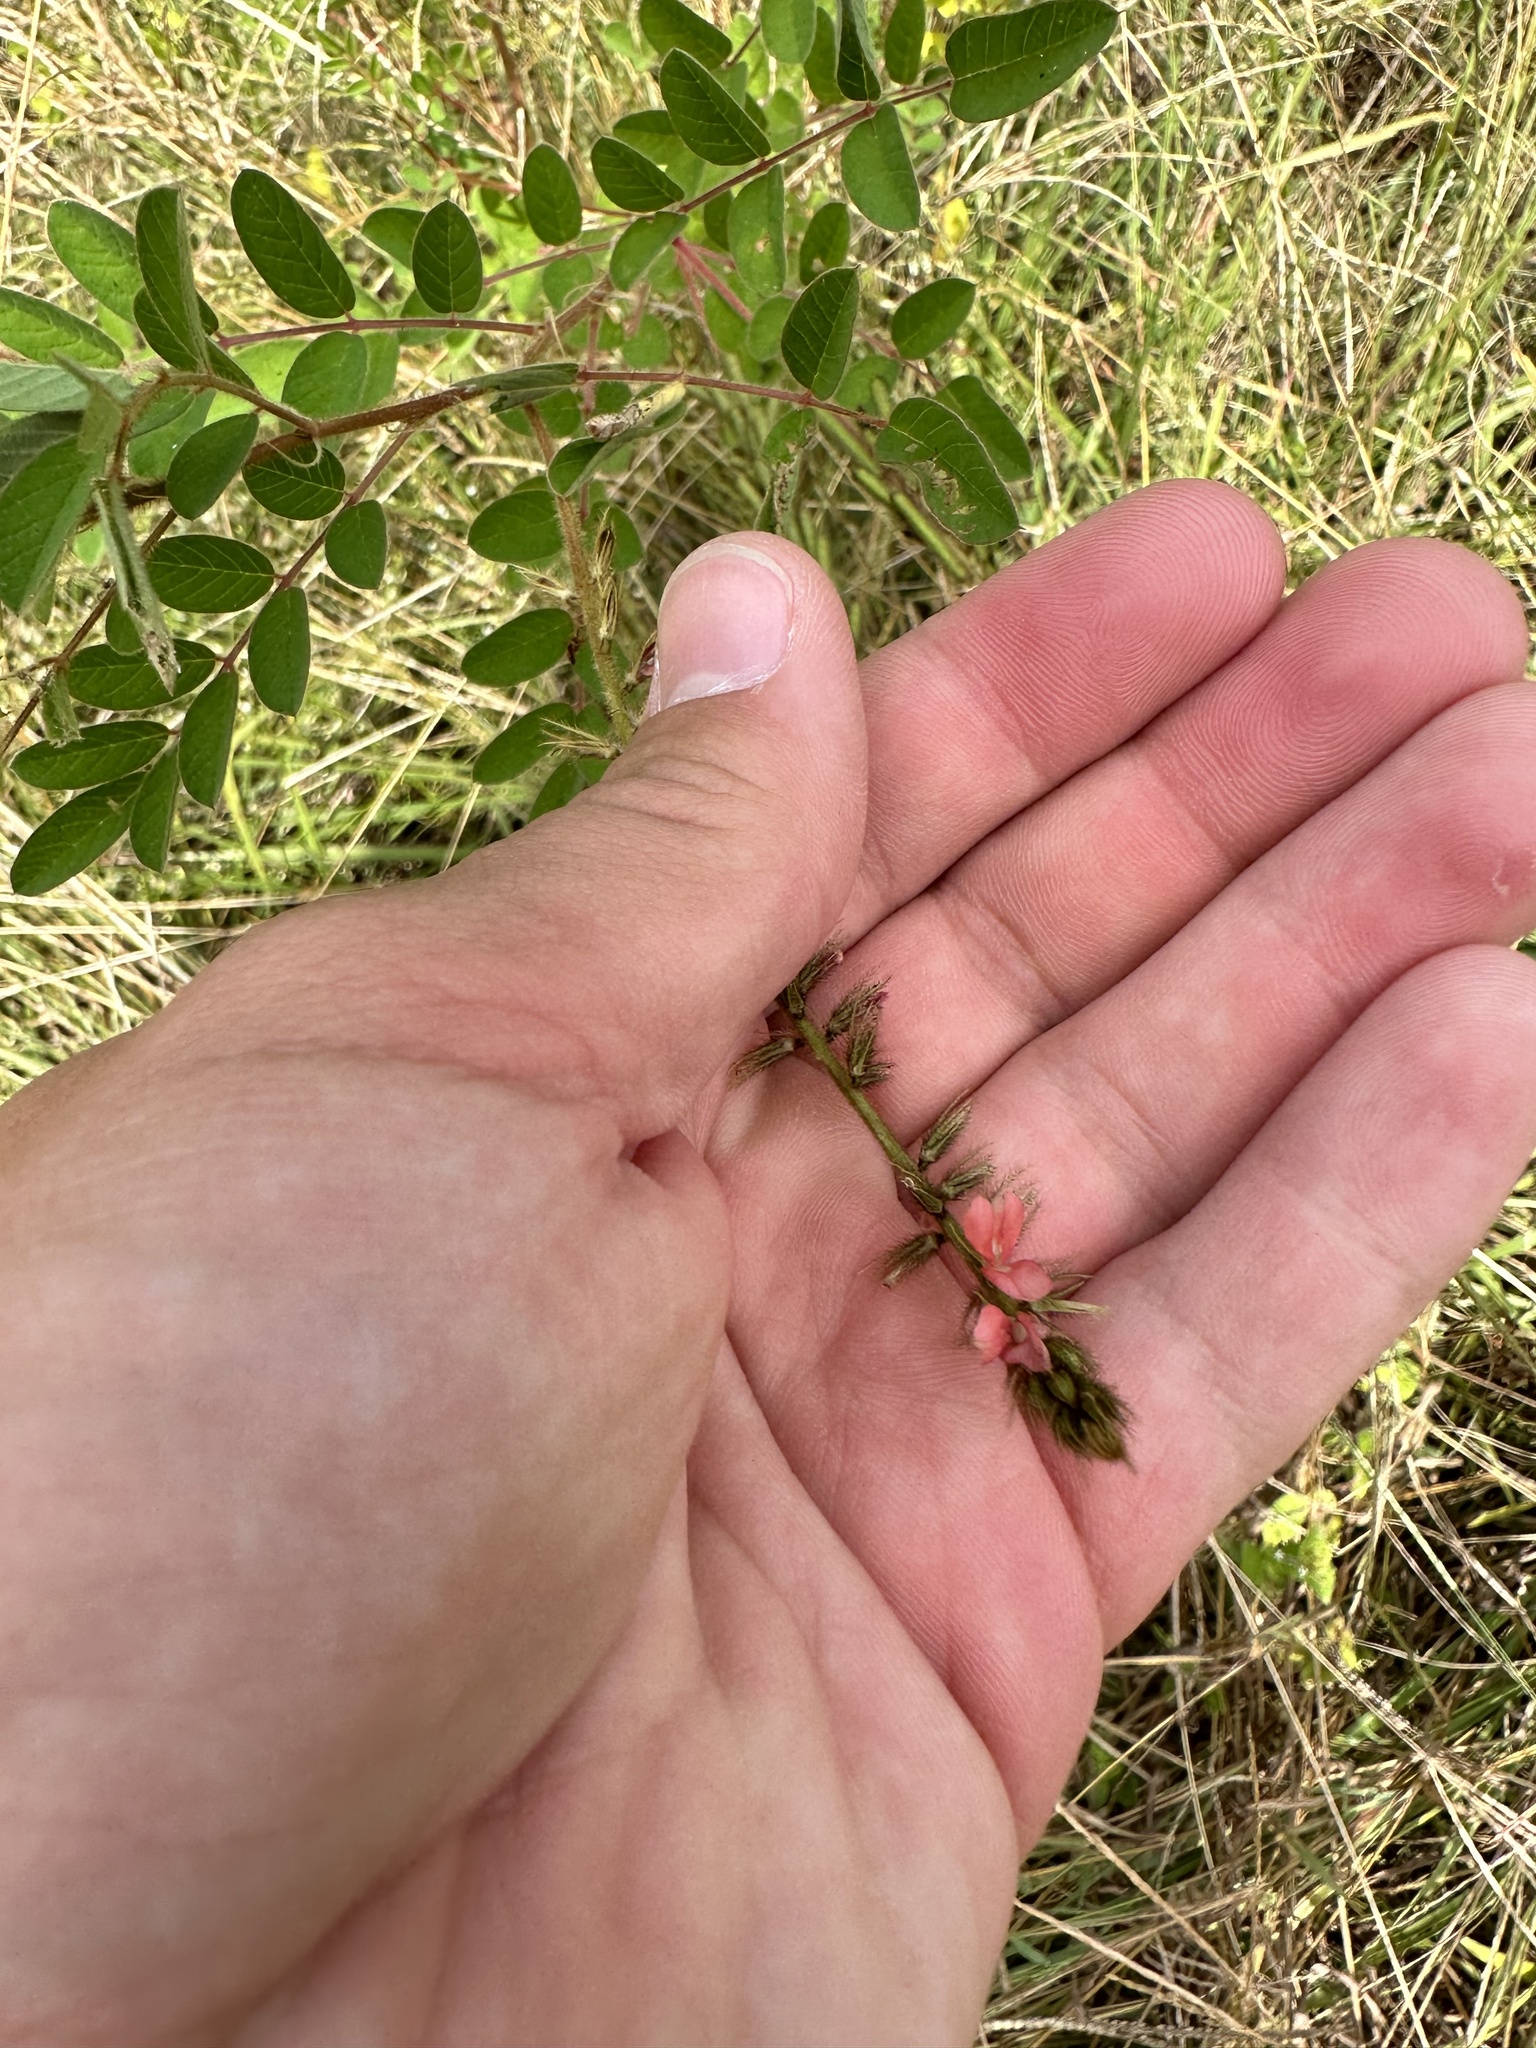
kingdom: Plantae
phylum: Tracheophyta
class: Magnoliopsida
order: Fabales
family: Fabaceae
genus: Indigofera
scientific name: Indigofera hirsuta
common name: Hairy indigo
